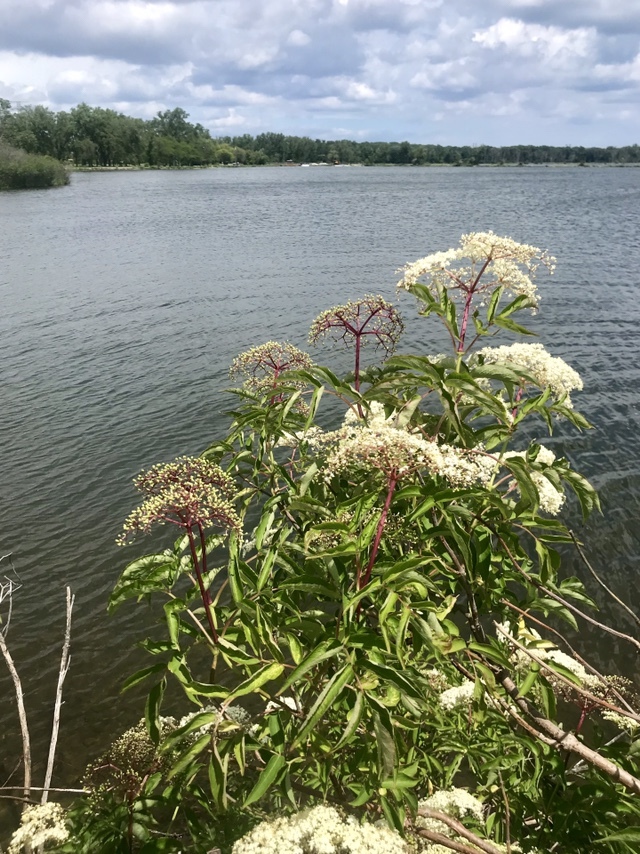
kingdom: Plantae
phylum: Tracheophyta
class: Magnoliopsida
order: Dipsacales
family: Viburnaceae
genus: Sambucus
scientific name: Sambucus canadensis
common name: American elder
